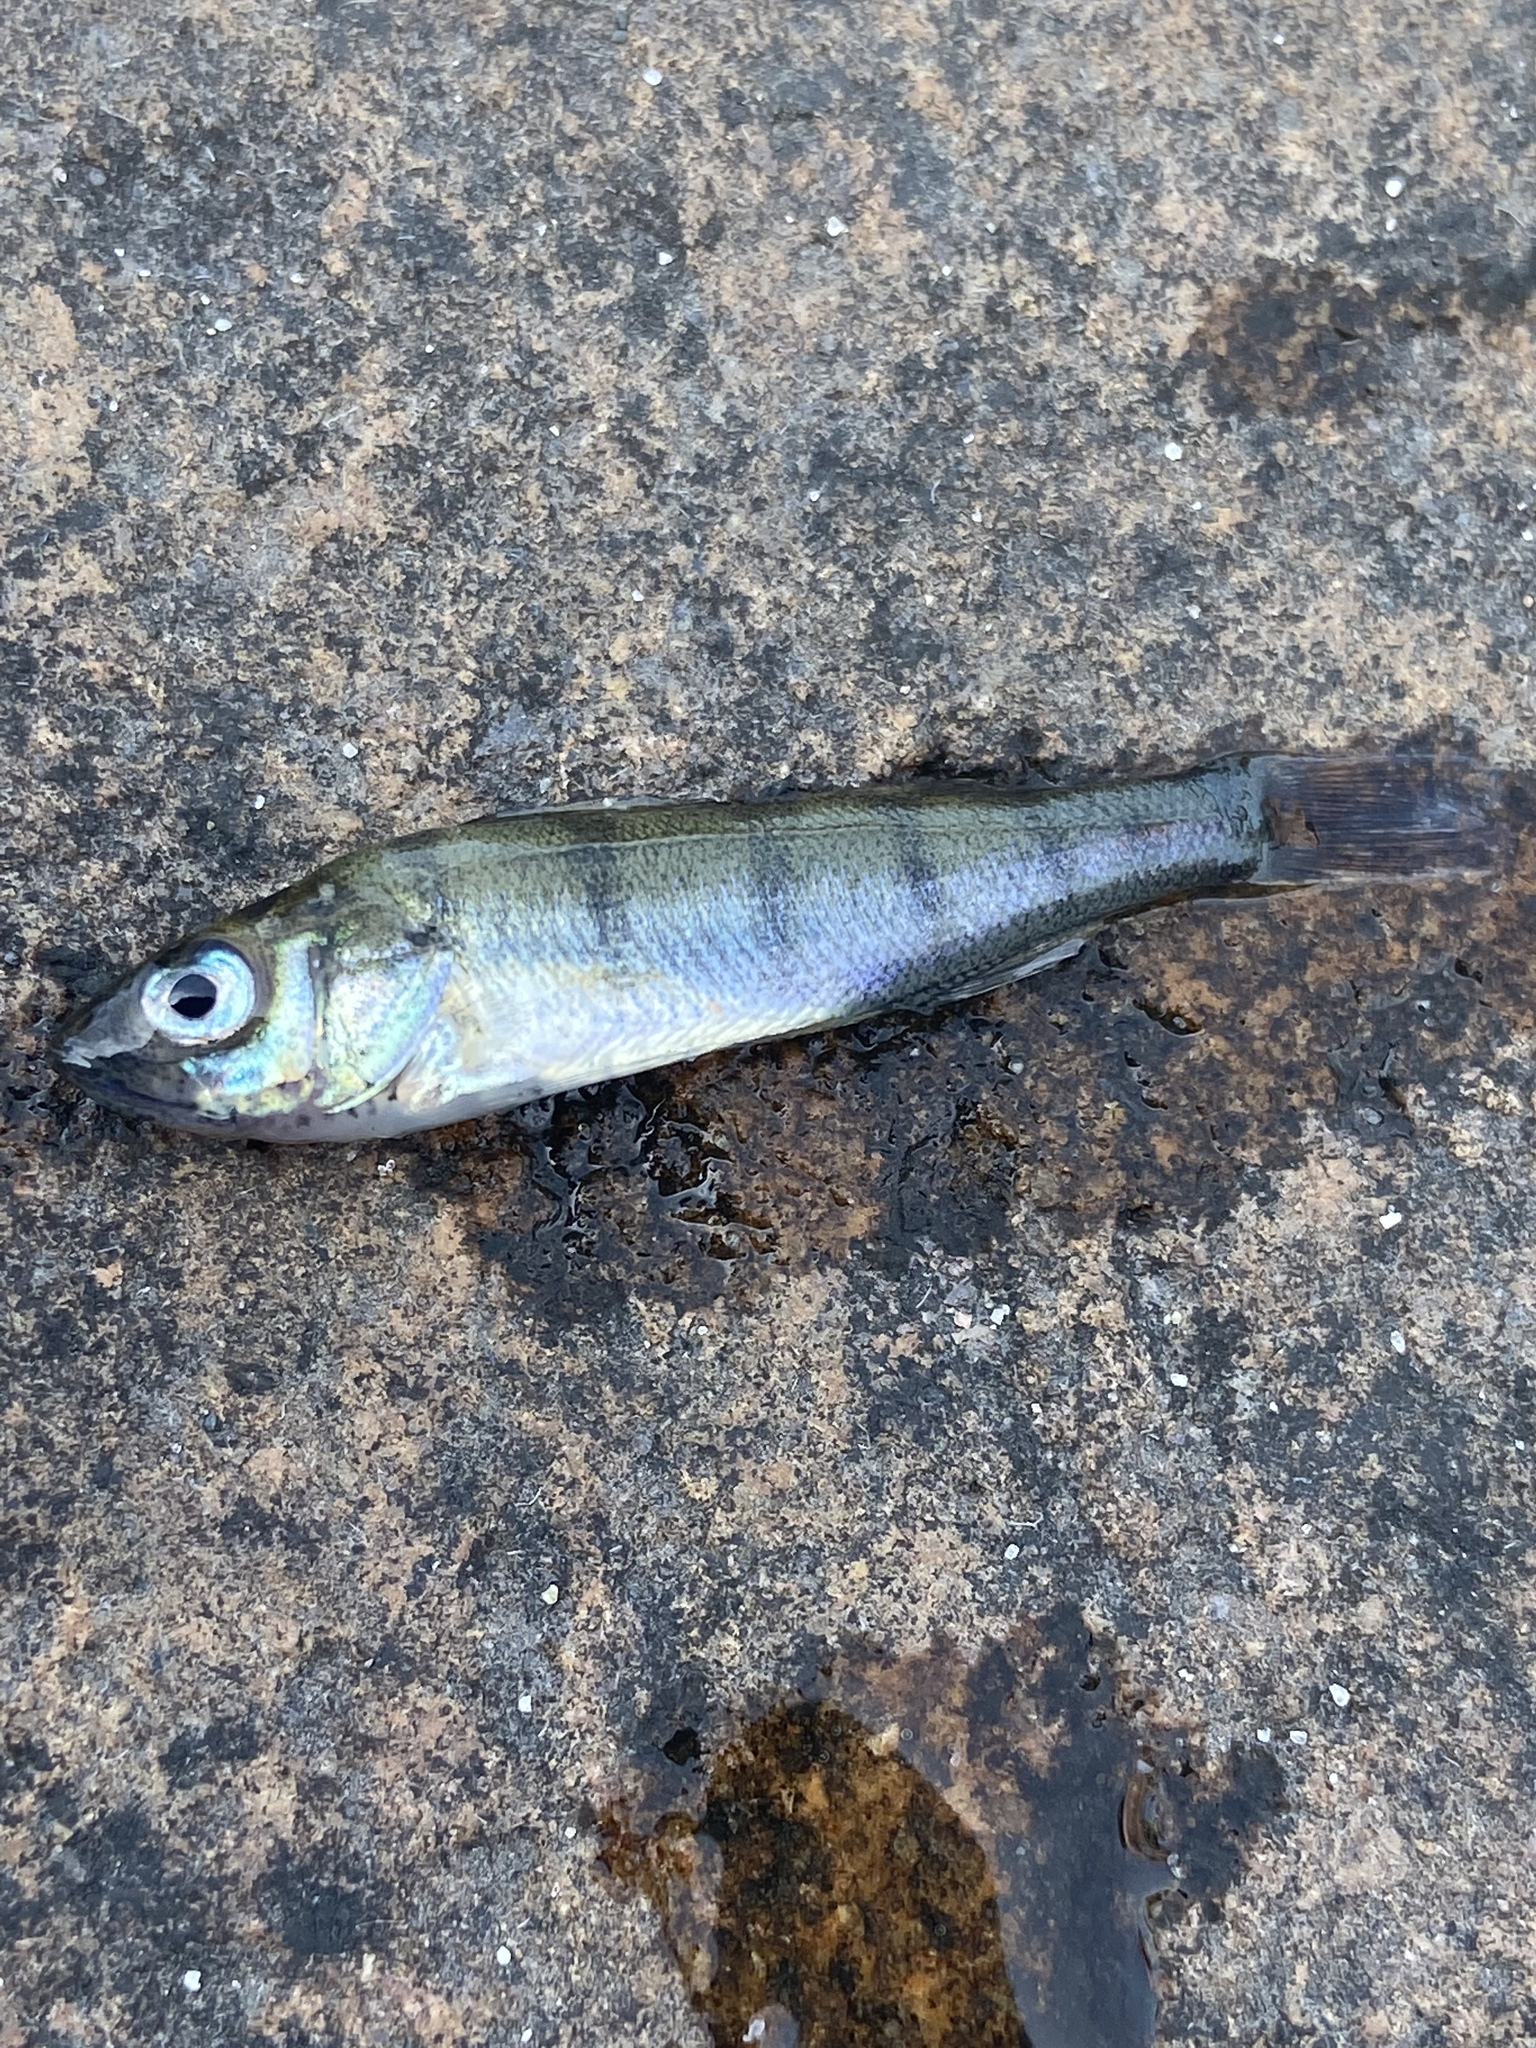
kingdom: Animalia
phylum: Chordata
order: Perciformes
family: Percidae
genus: Perca
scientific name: Perca flavescens
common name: Yellow perch
